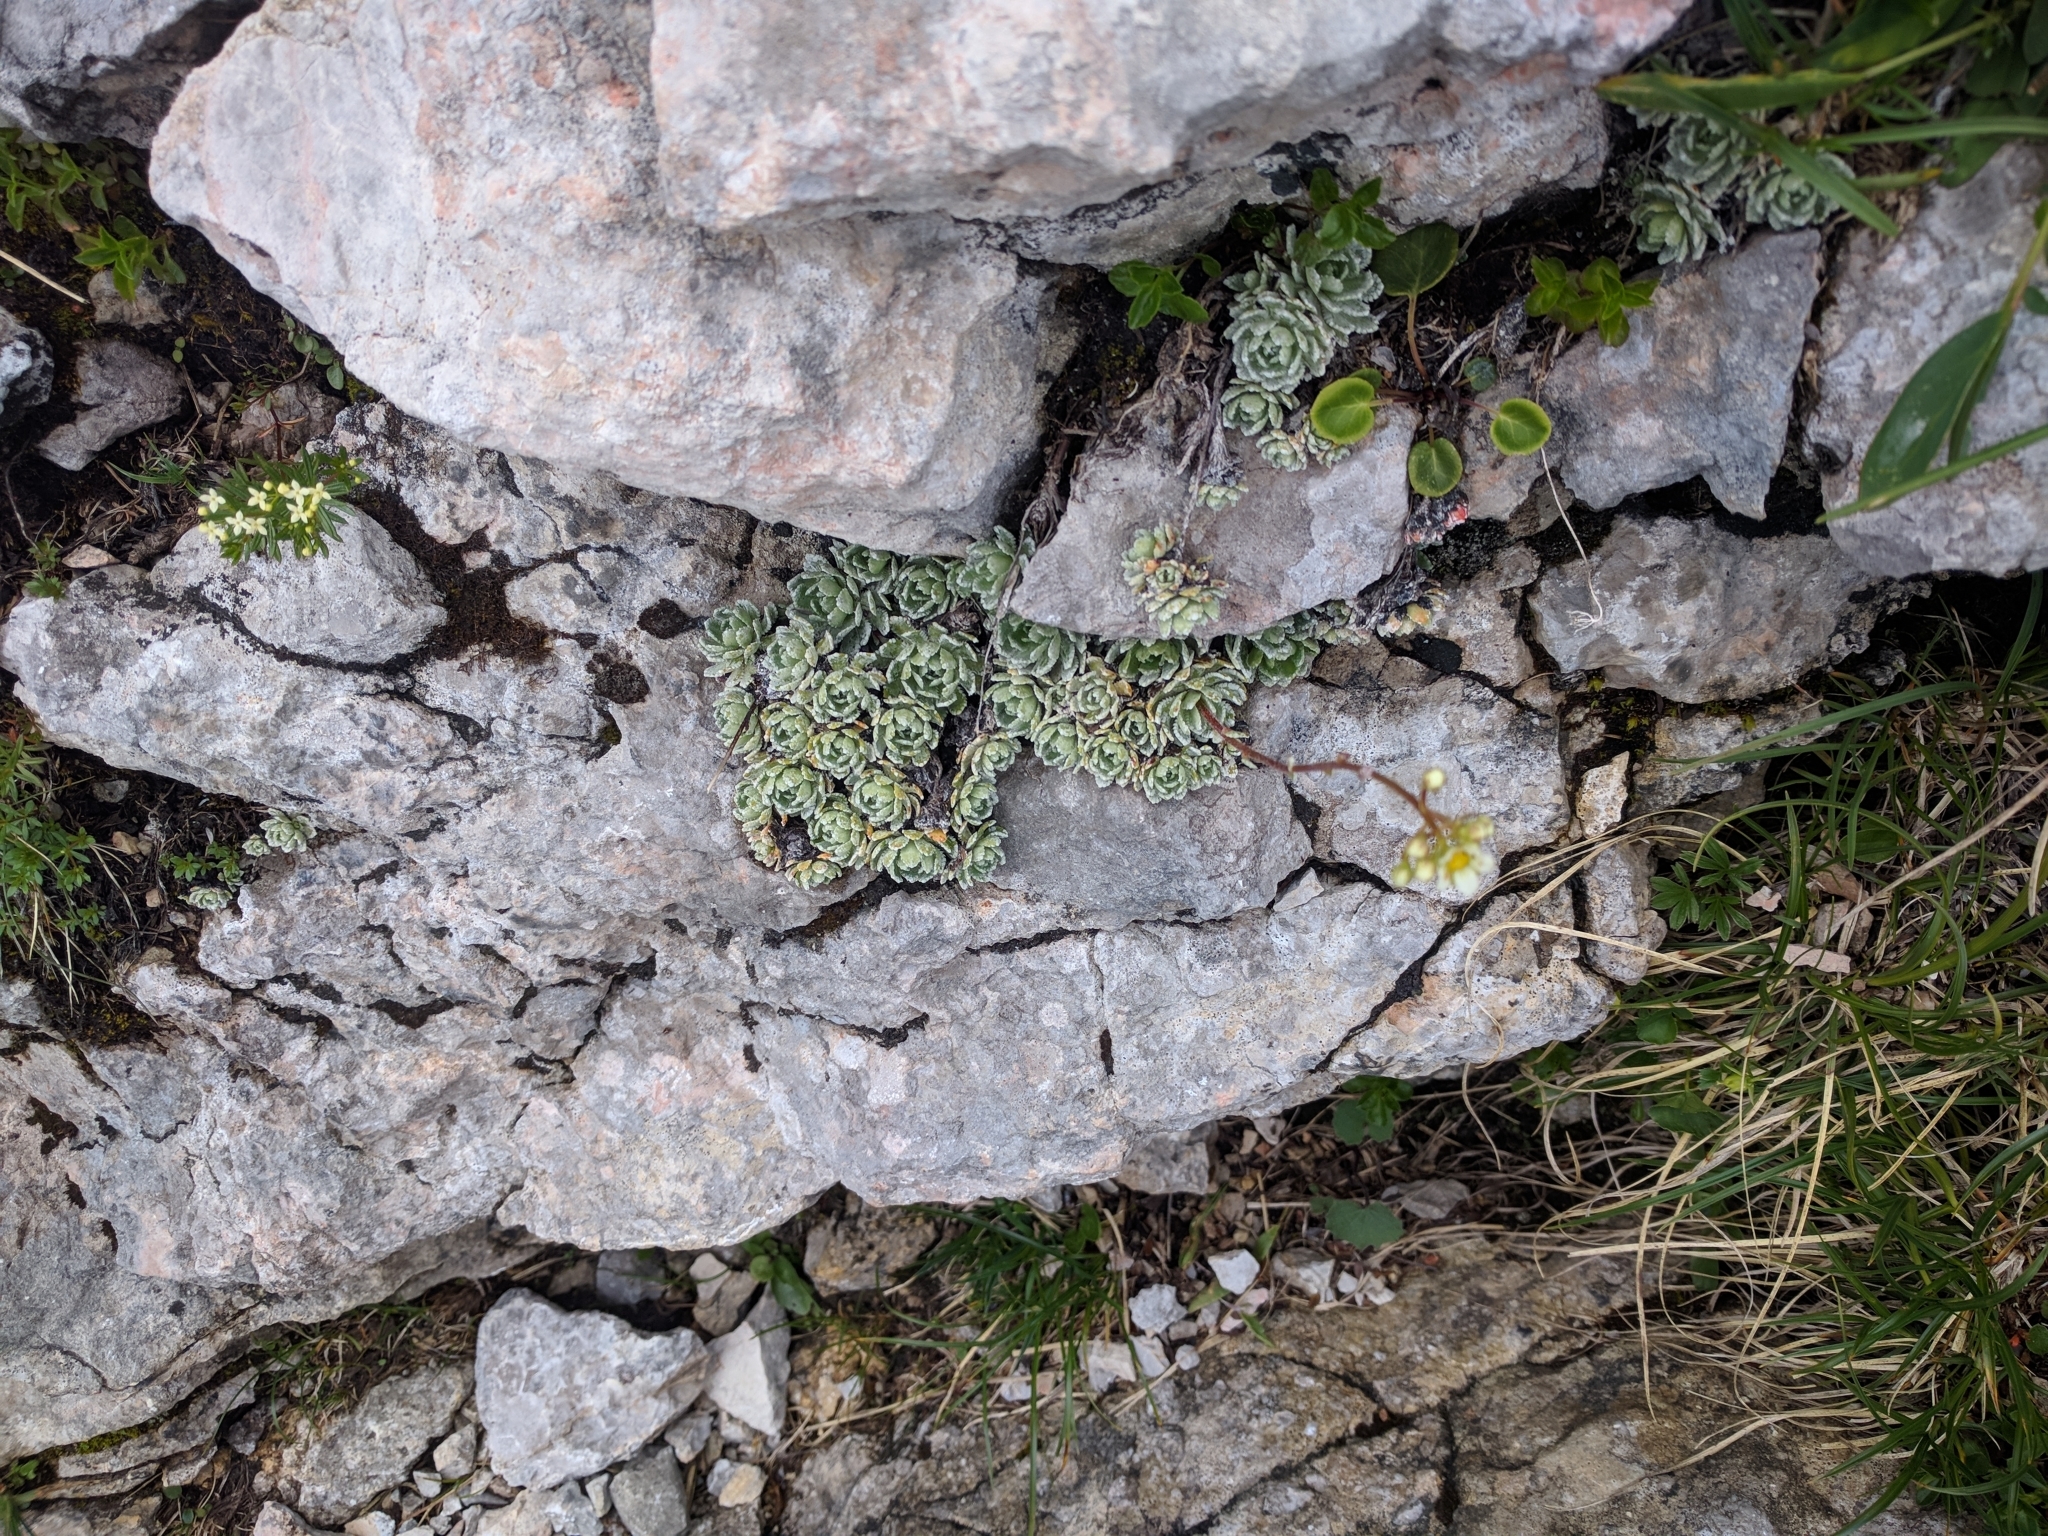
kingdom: Plantae
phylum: Tracheophyta
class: Magnoliopsida
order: Saxifragales
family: Saxifragaceae
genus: Saxifraga
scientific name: Saxifraga paniculata
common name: Livelong saxifrage
